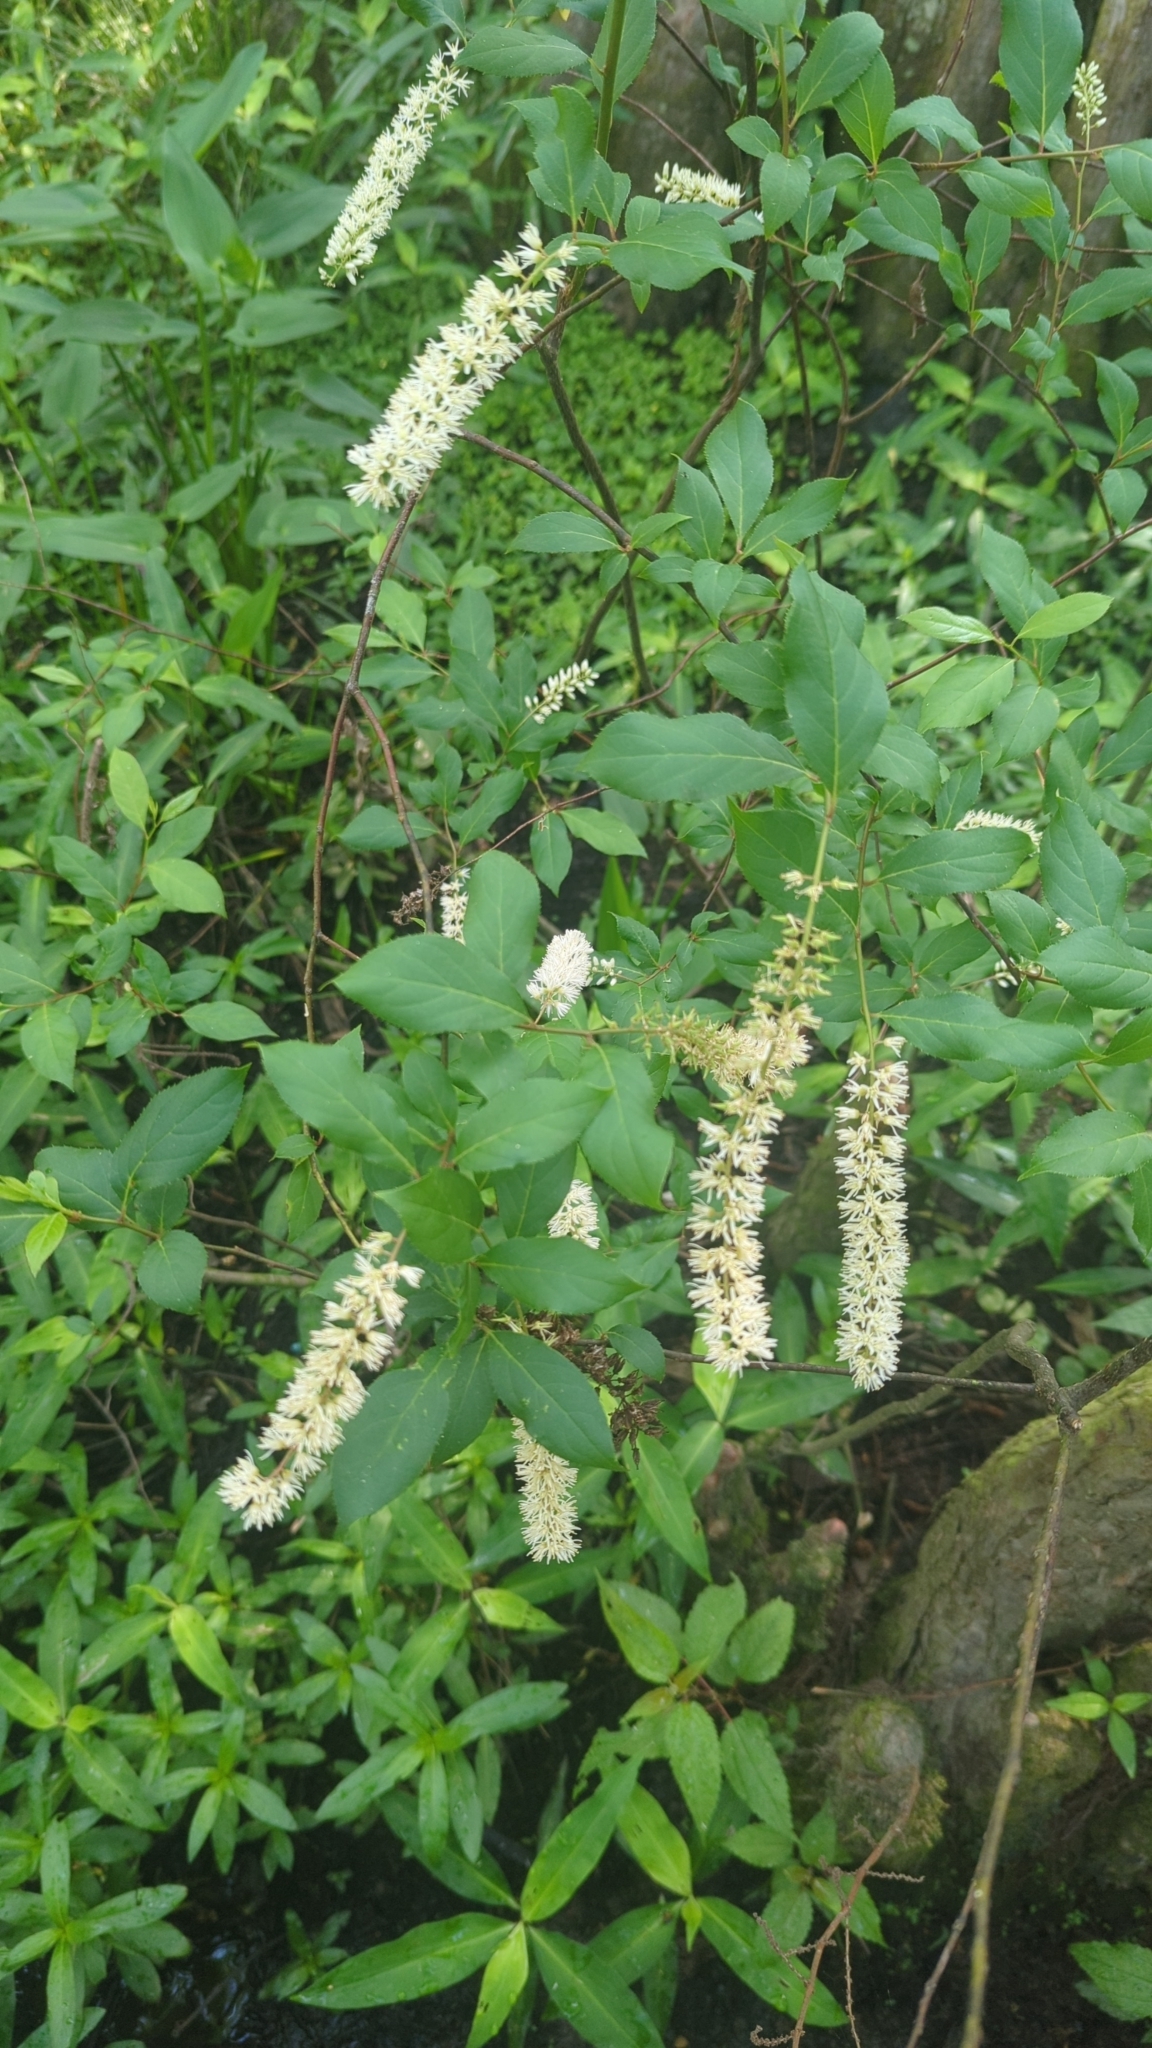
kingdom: Plantae
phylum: Tracheophyta
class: Magnoliopsida
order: Saxifragales
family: Iteaceae
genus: Itea
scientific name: Itea virginica
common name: Sweetspire
